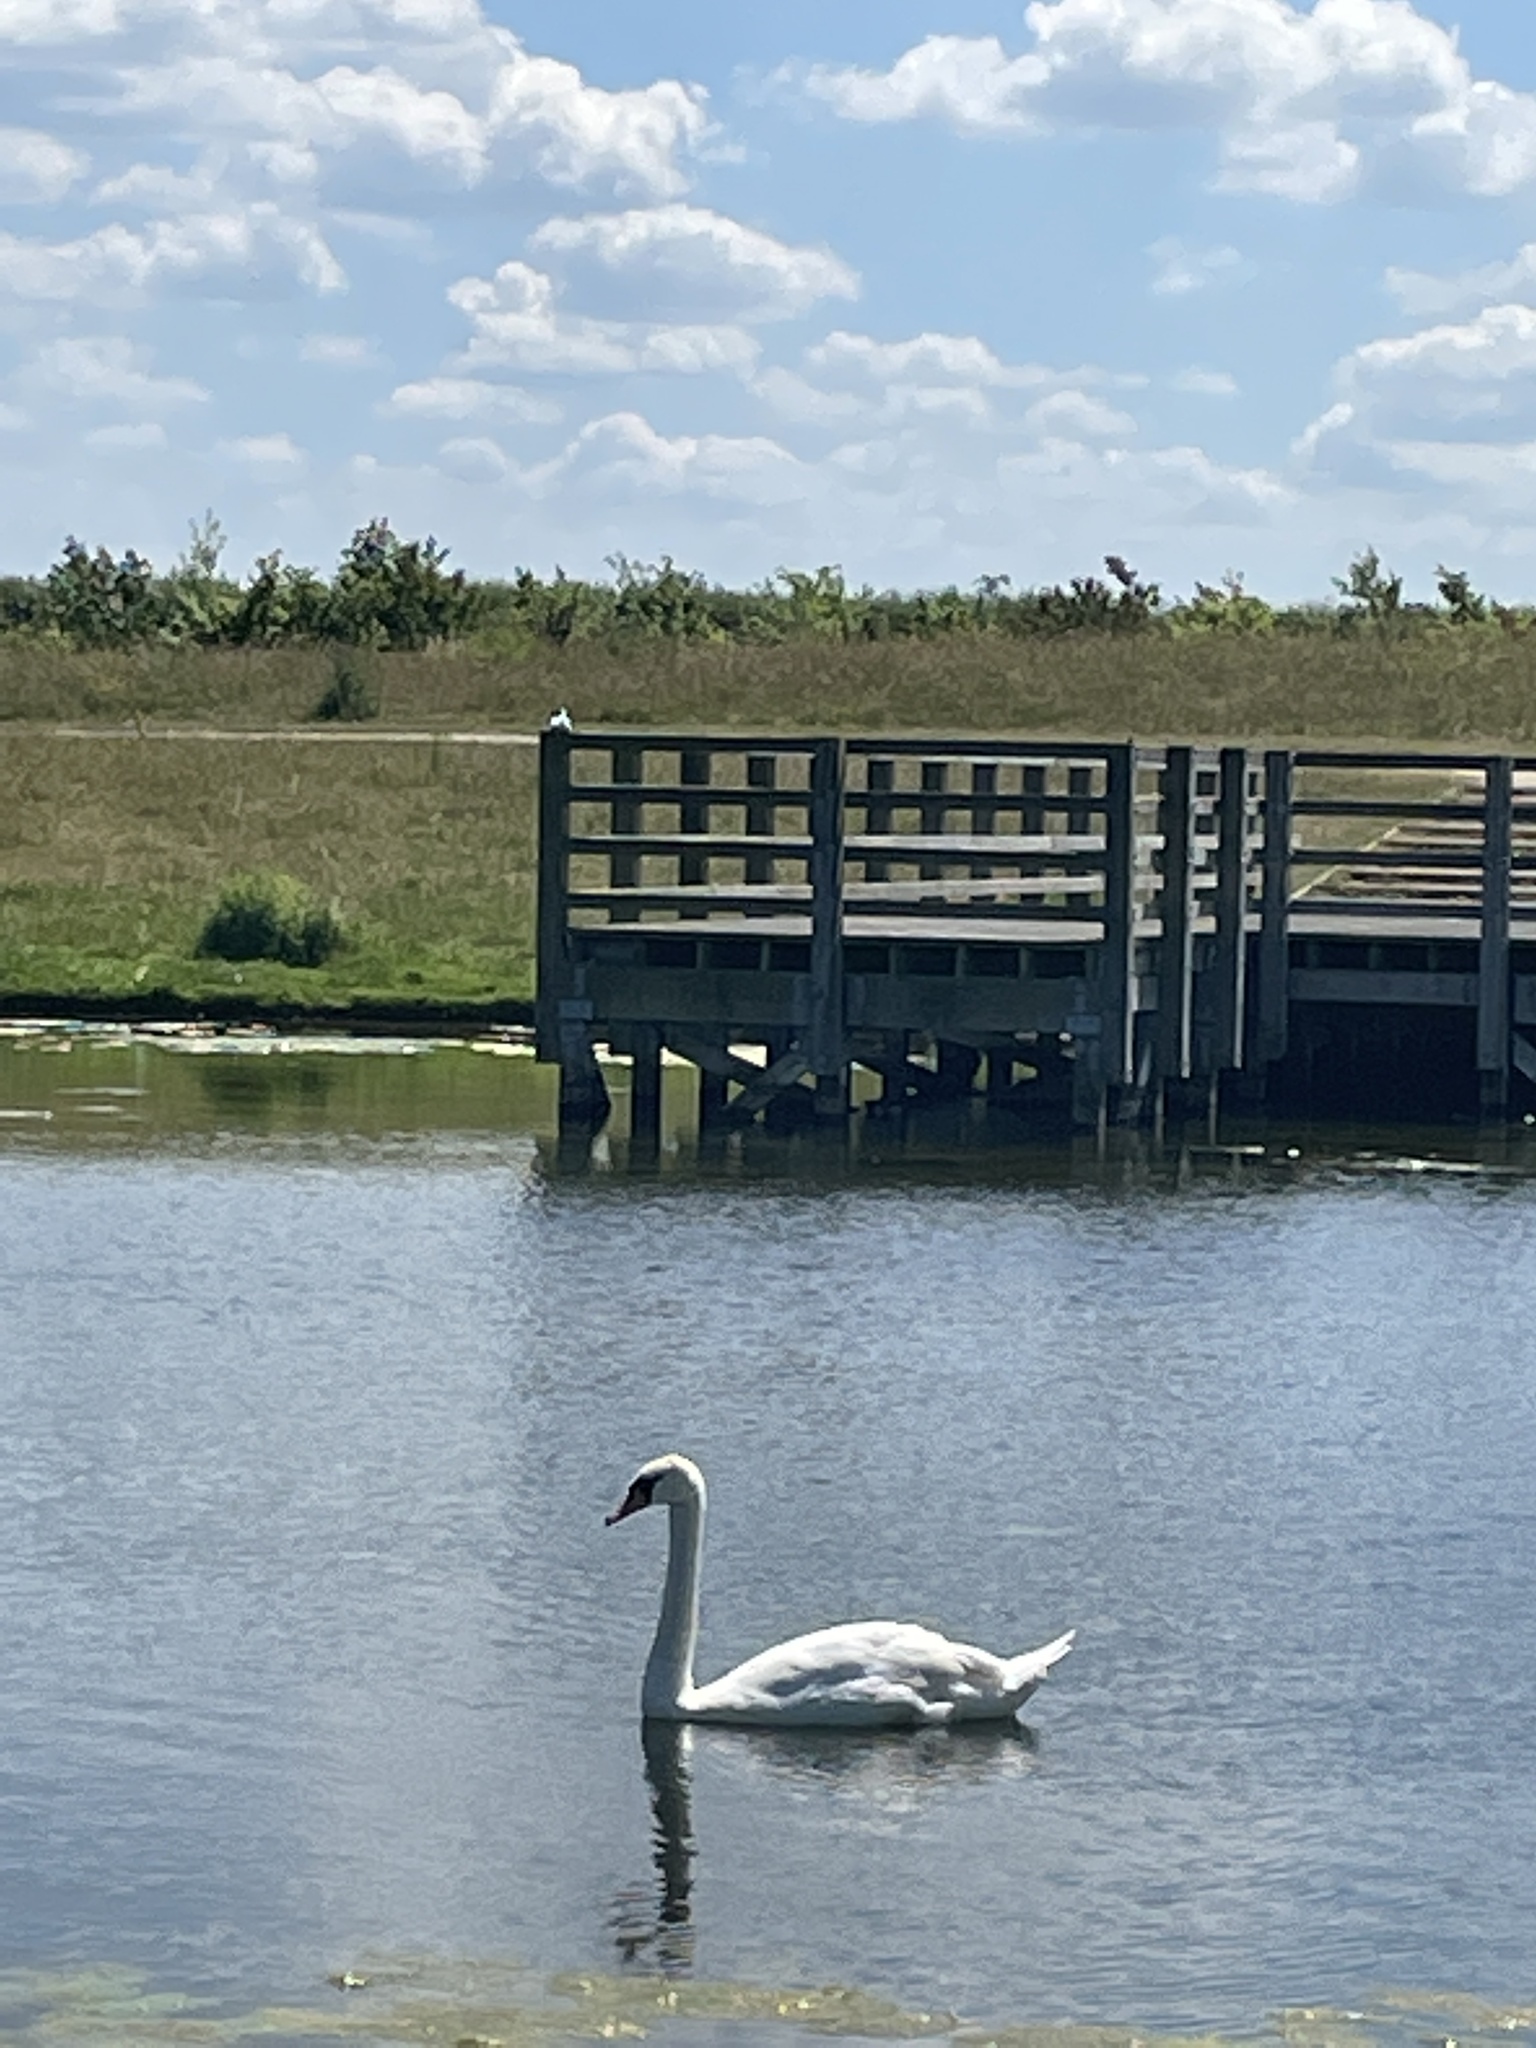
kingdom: Animalia
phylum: Chordata
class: Aves
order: Anseriformes
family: Anatidae
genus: Cygnus
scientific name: Cygnus olor
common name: Mute swan
